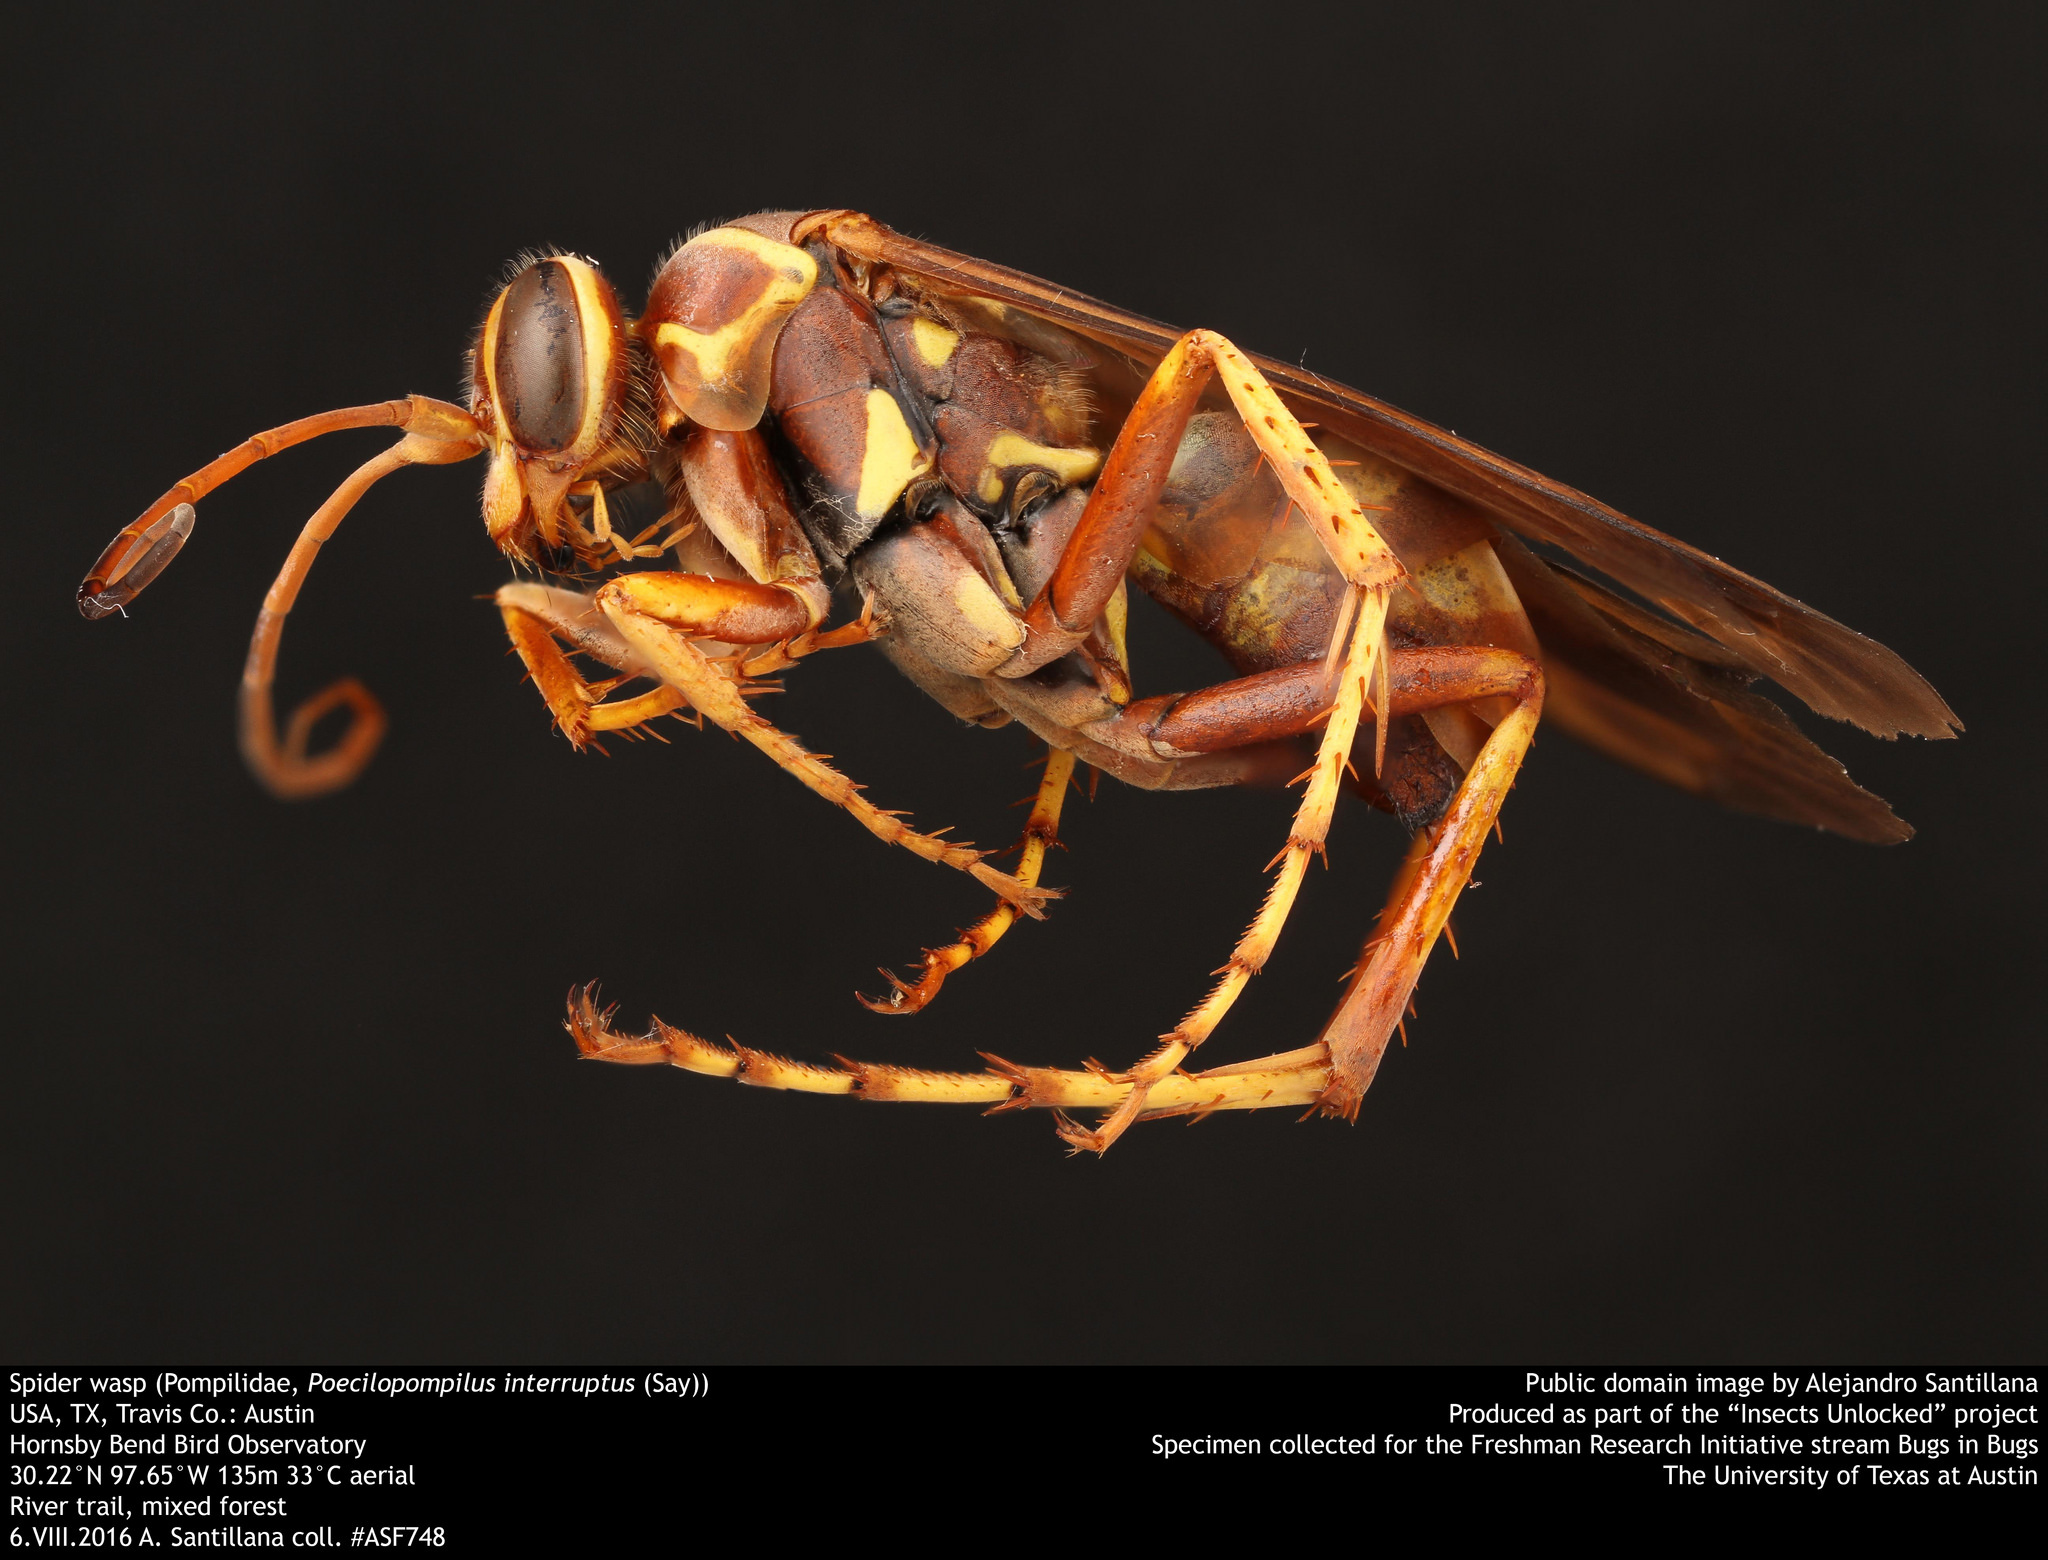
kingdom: Animalia
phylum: Arthropoda
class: Insecta
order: Hymenoptera
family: Pompilidae
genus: Poecilopompilus
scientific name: Poecilopompilus interruptus
